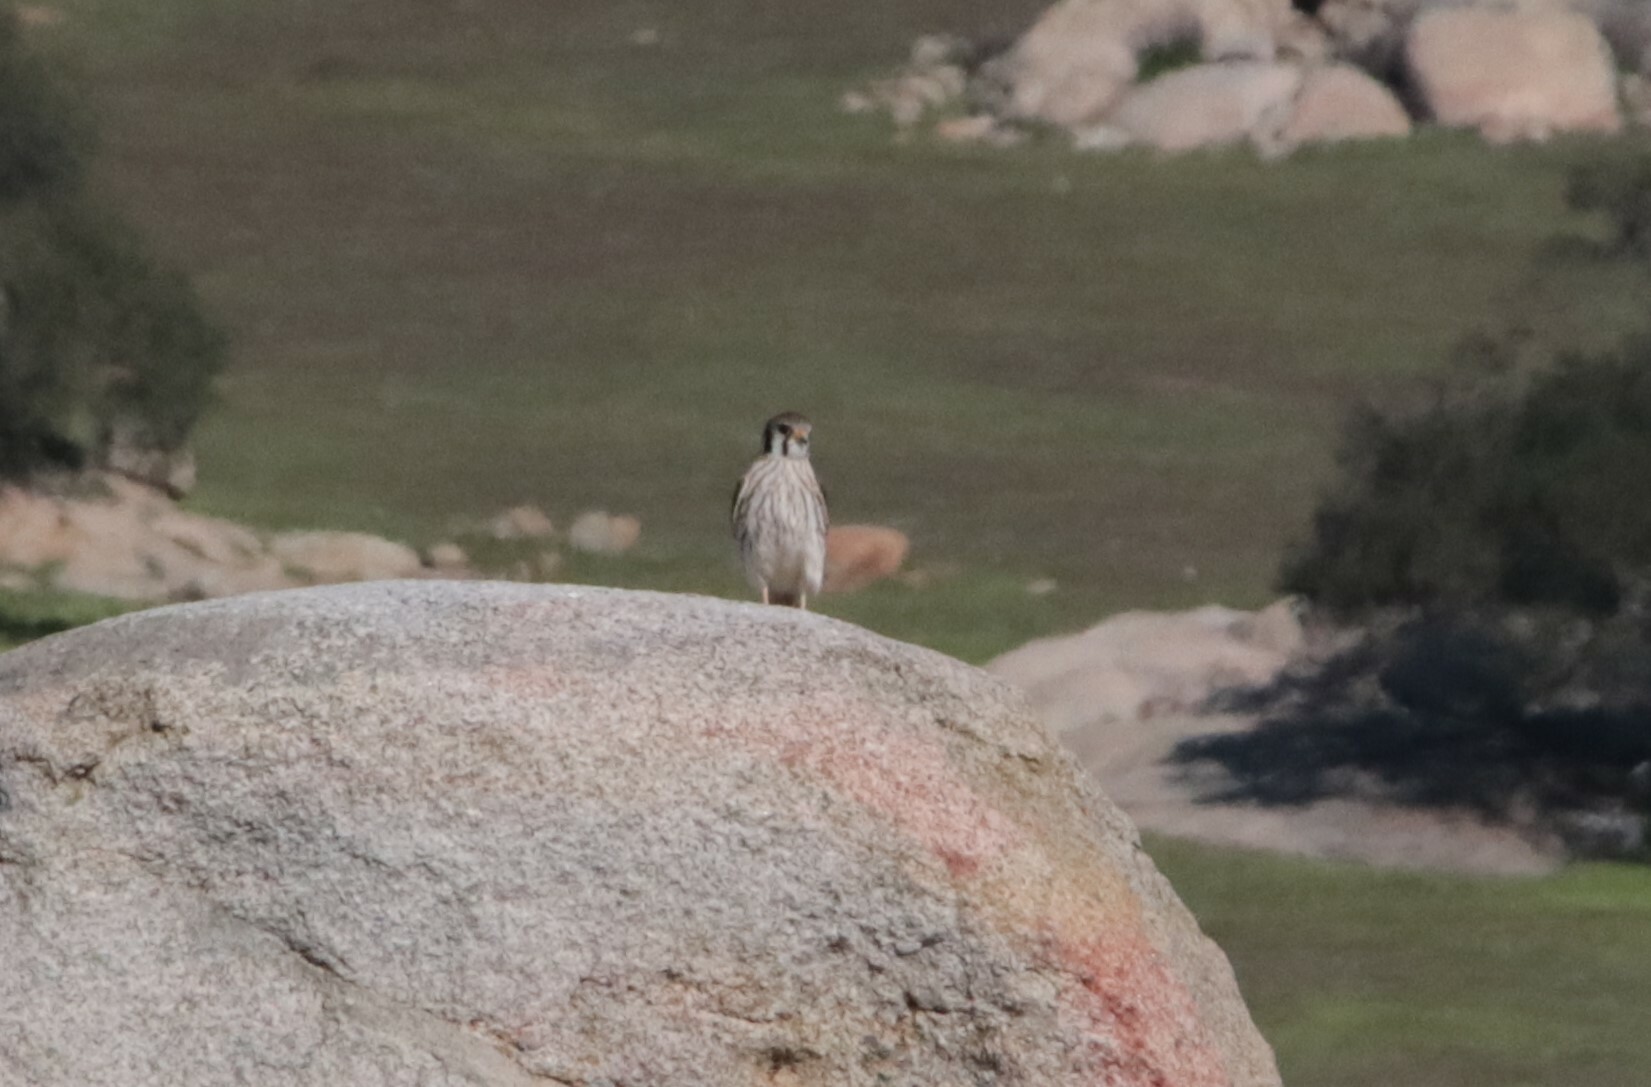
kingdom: Animalia
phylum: Chordata
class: Aves
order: Falconiformes
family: Falconidae
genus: Falco
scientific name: Falco sparverius
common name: American kestrel
